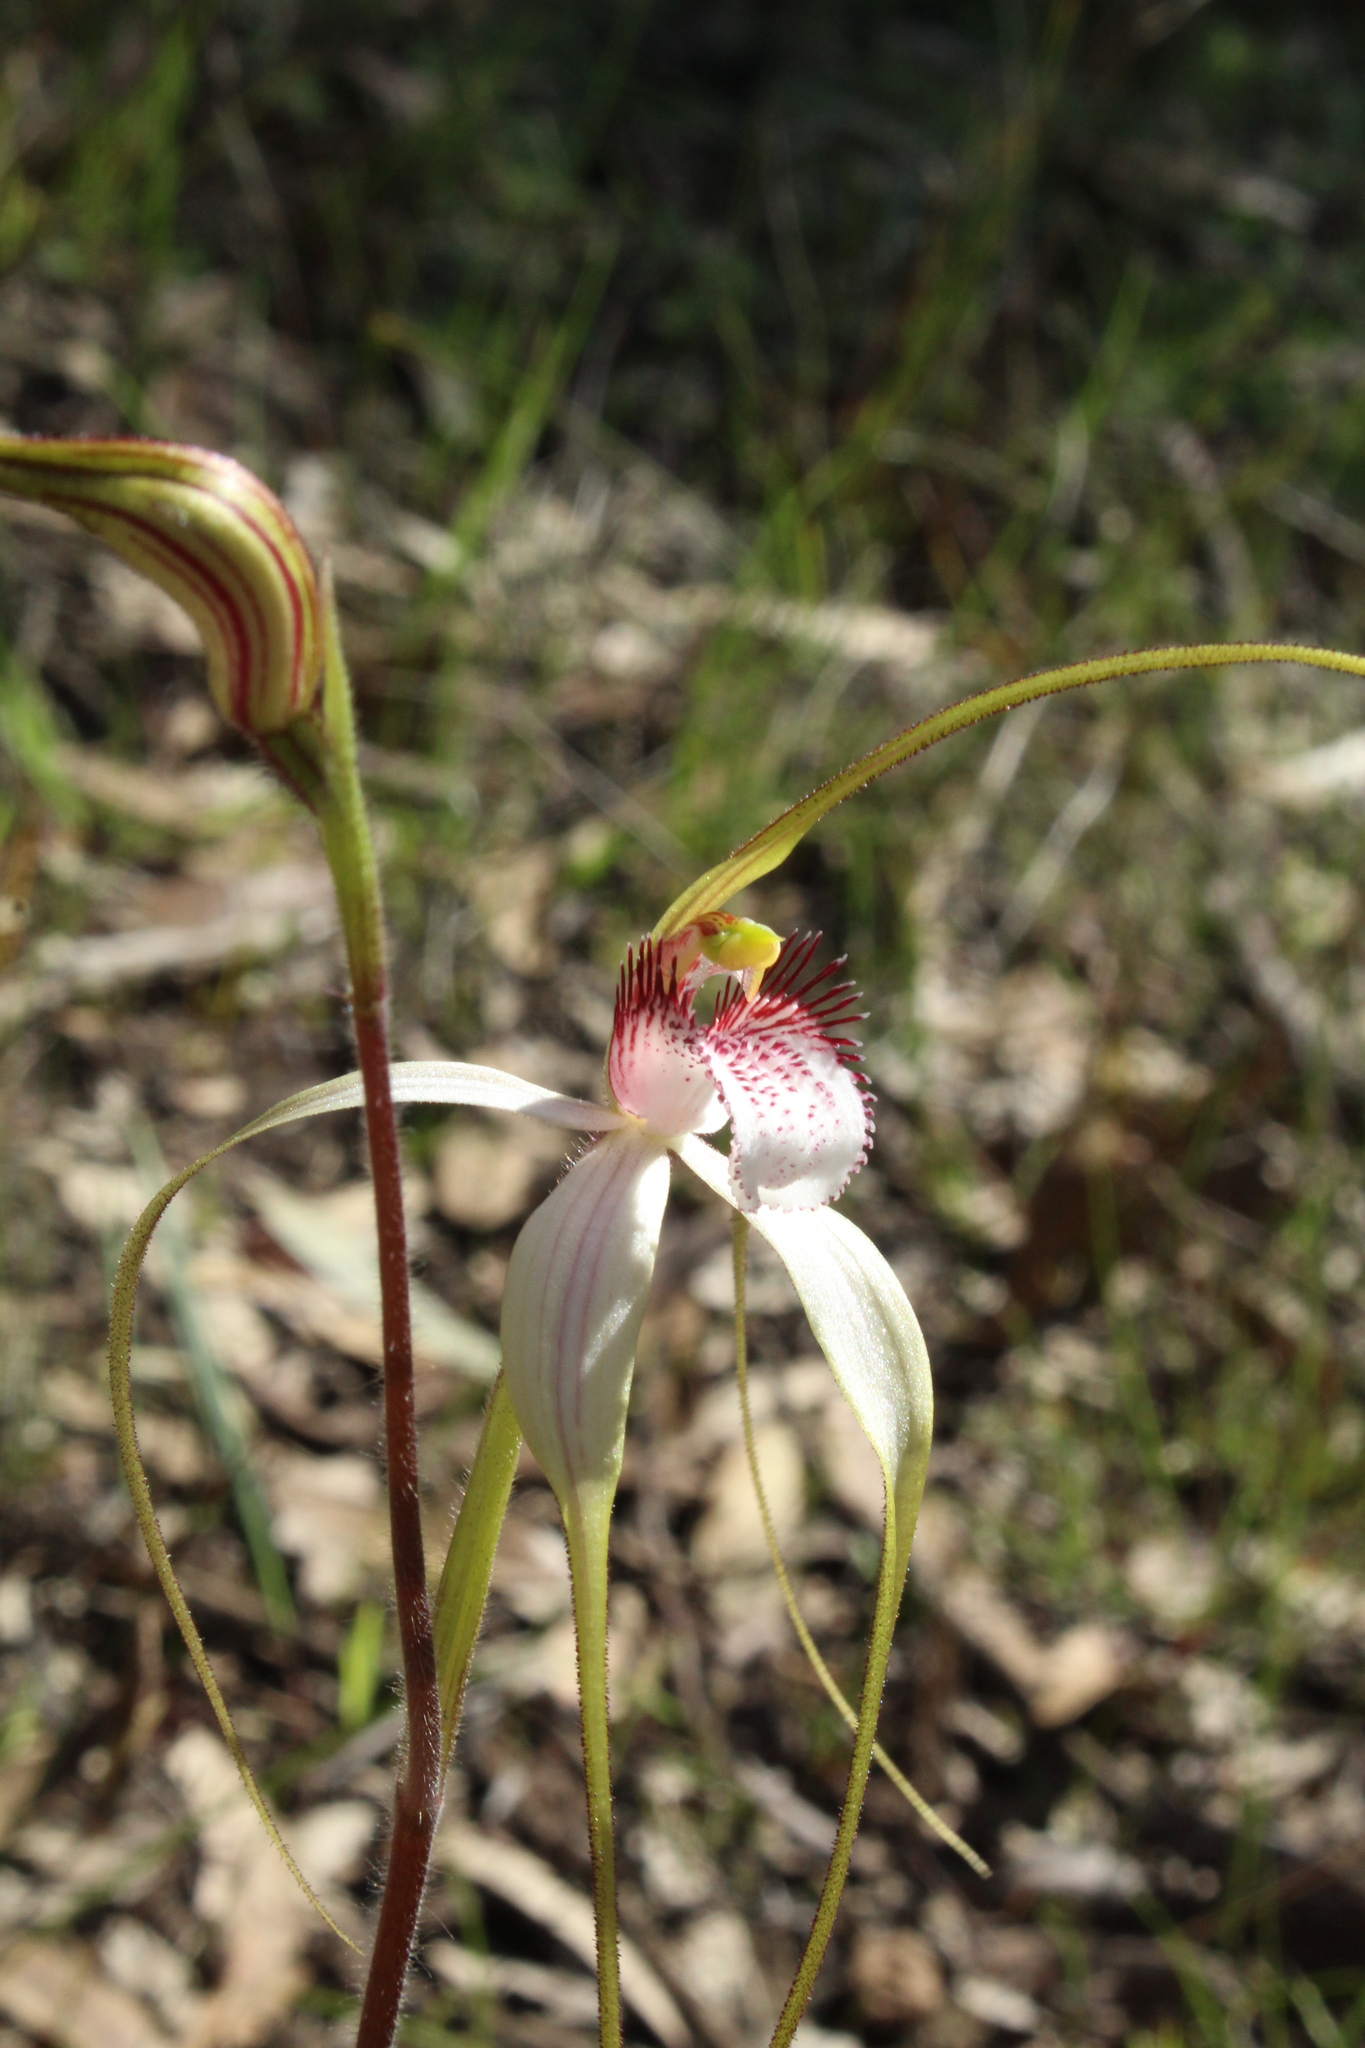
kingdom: Plantae
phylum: Tracheophyta
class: Liliopsida
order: Asparagales
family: Orchidaceae
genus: Caladenia
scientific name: Caladenia longicauda
